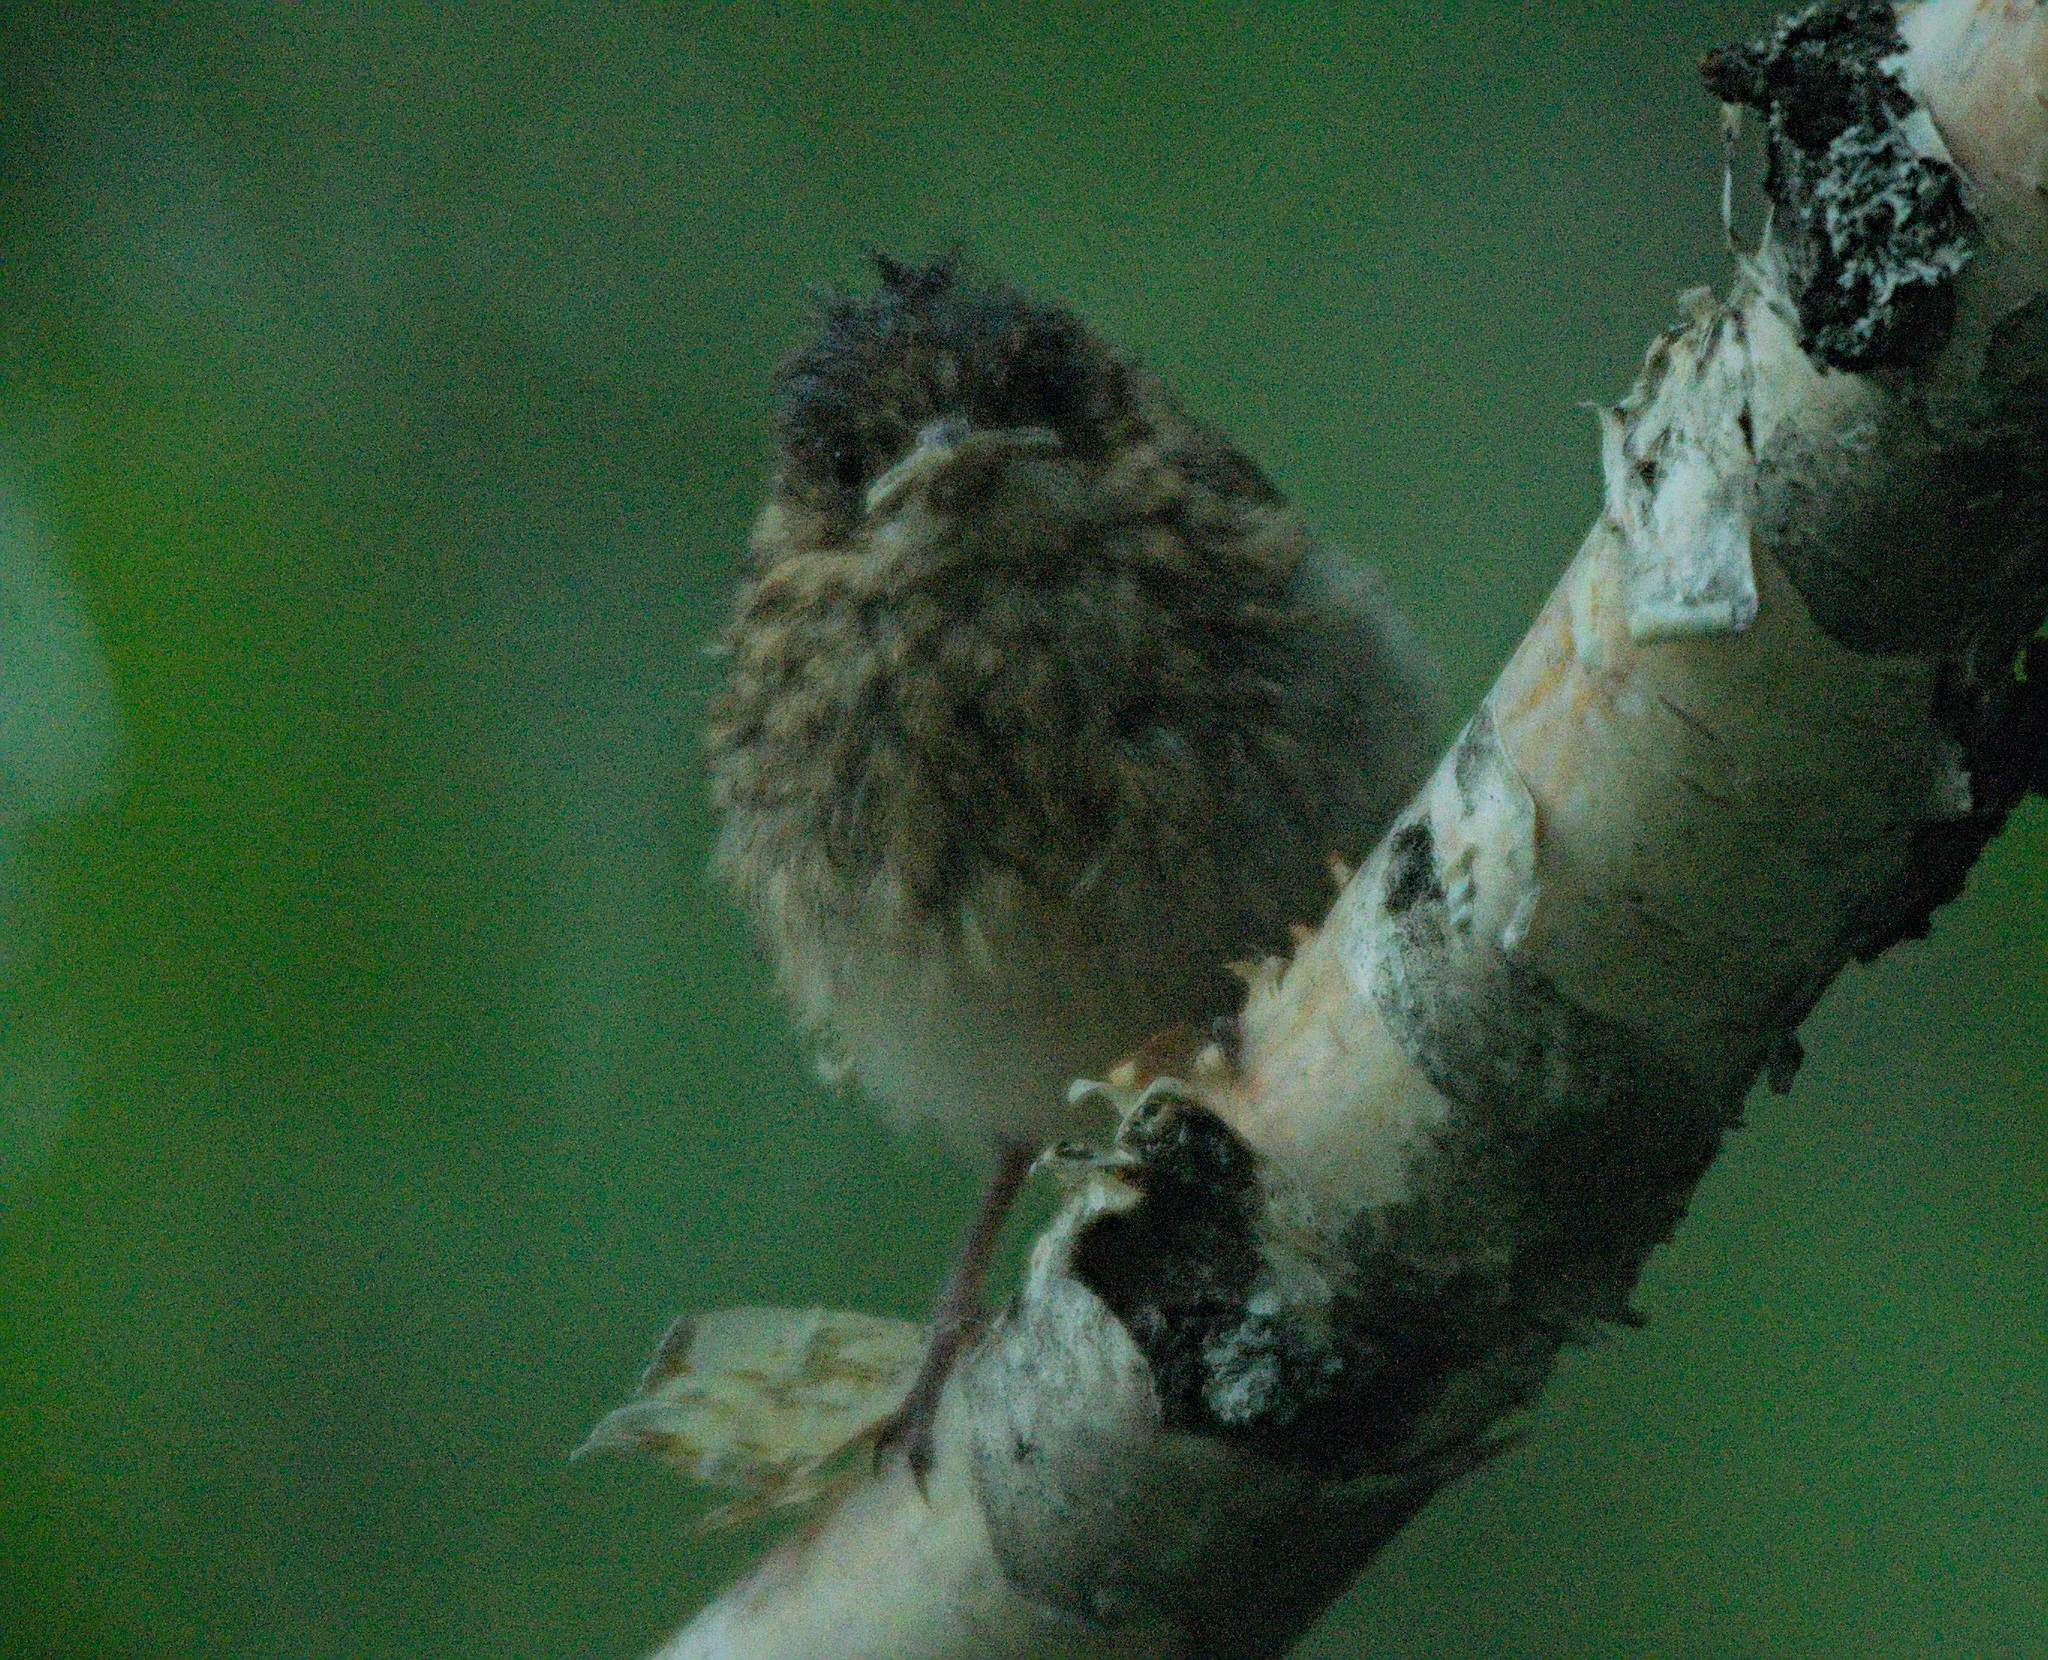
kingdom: Animalia
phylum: Chordata
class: Aves
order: Passeriformes
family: Muscicapidae
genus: Erithacus
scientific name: Erithacus rubecula
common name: European robin
